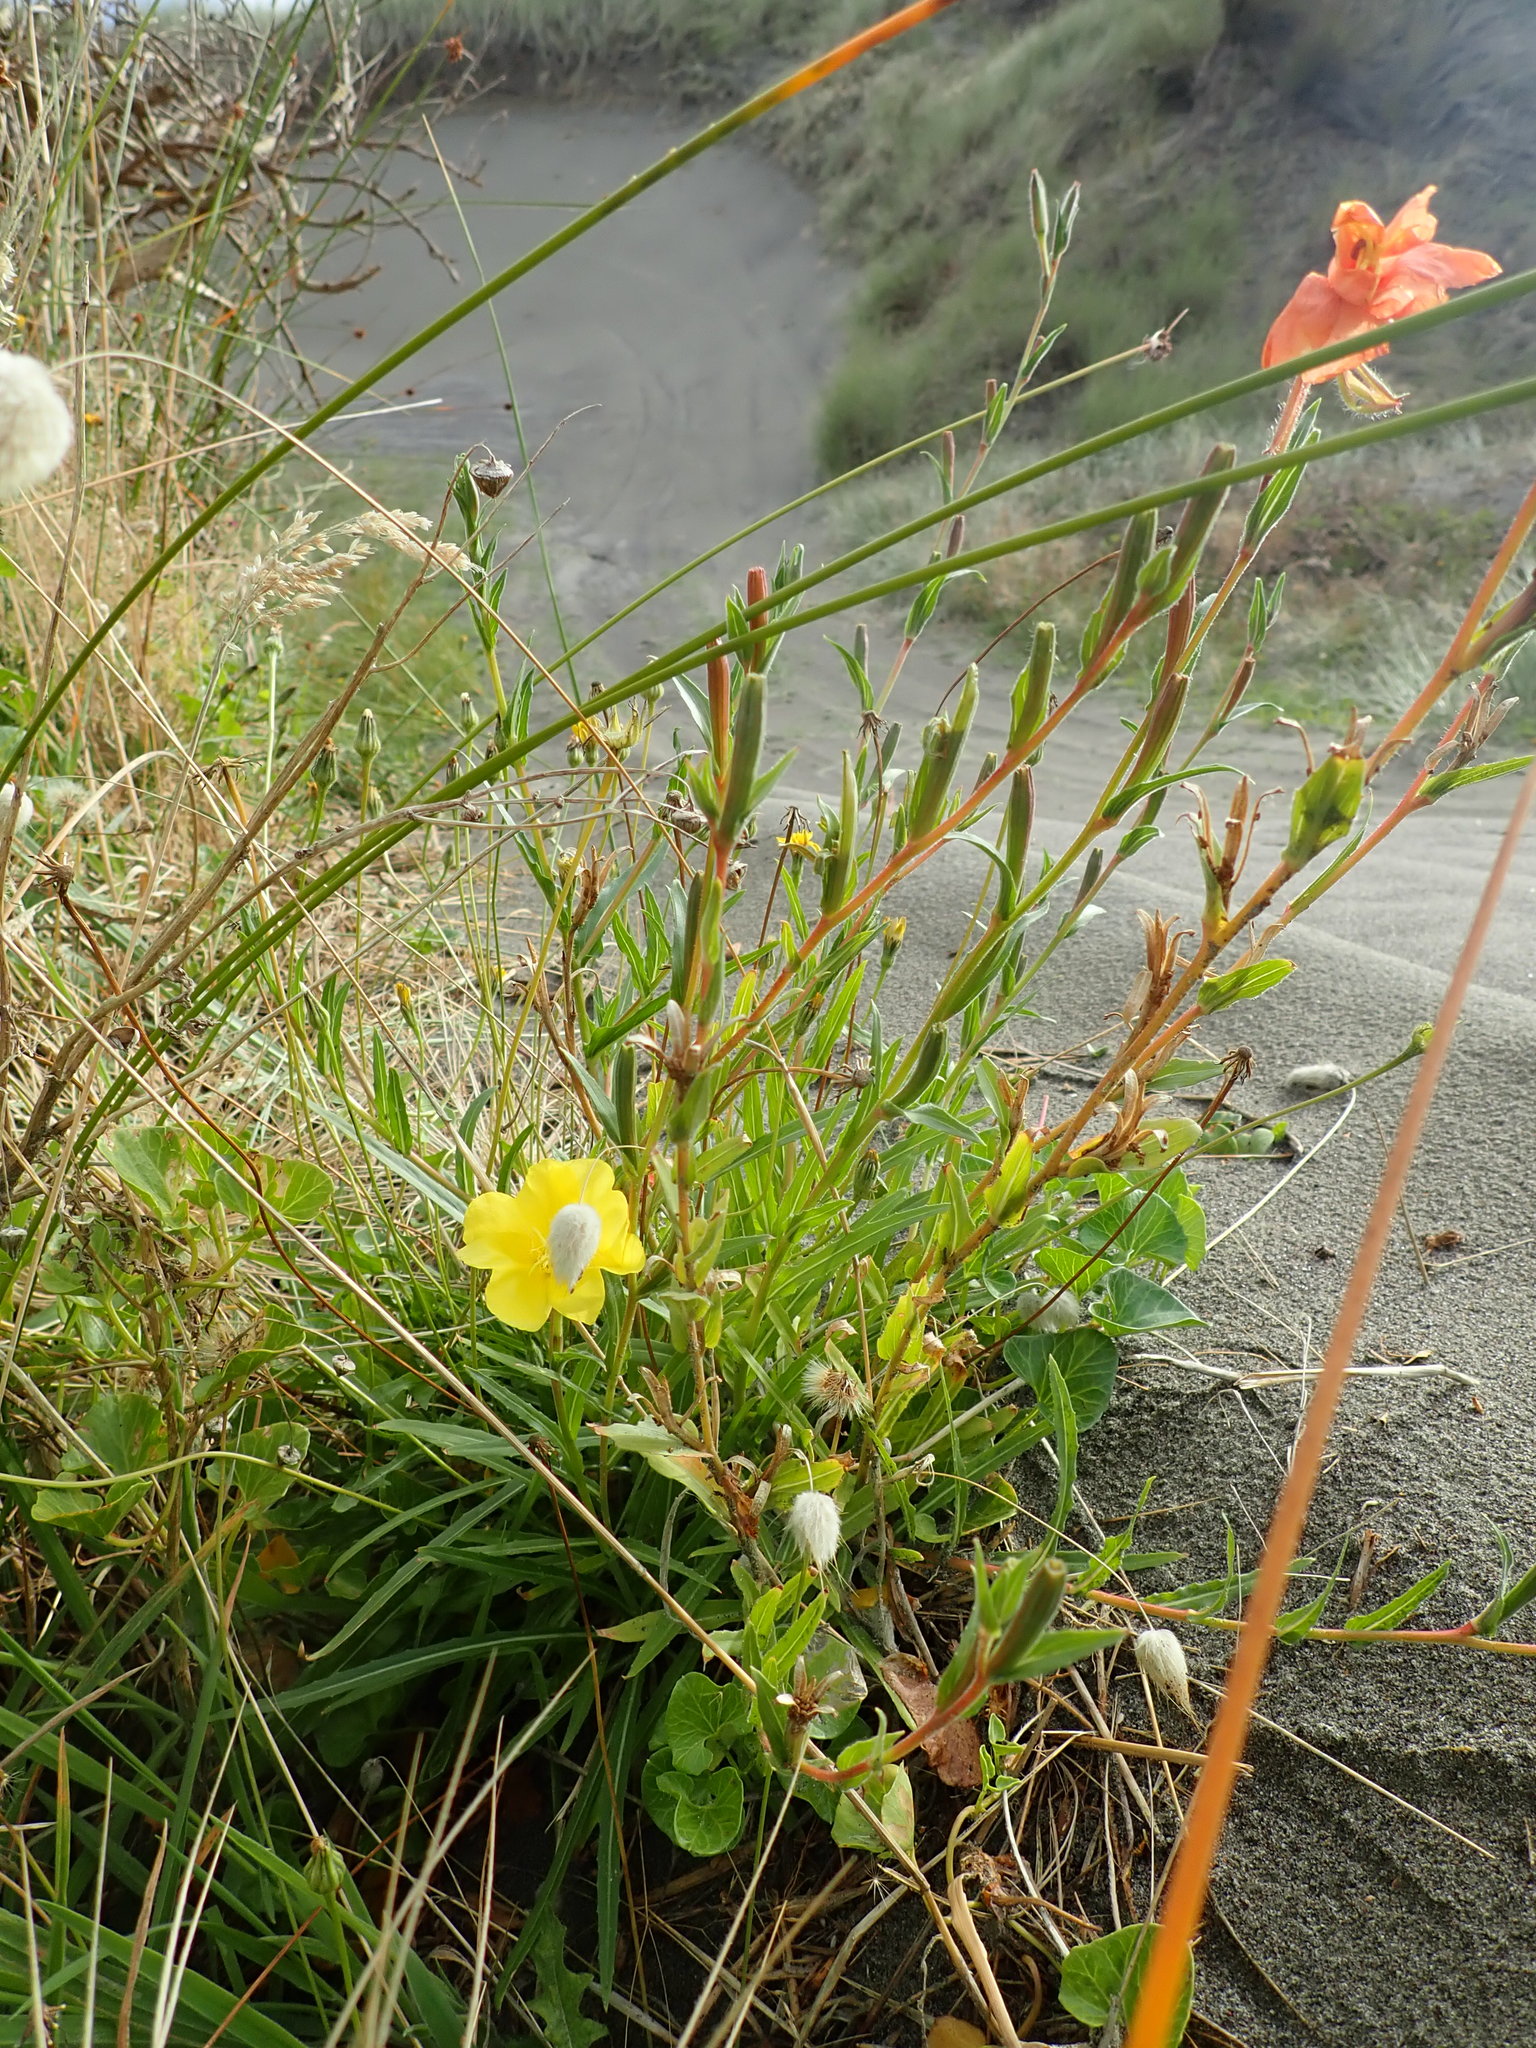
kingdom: Plantae
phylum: Tracheophyta
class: Magnoliopsida
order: Myrtales
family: Onagraceae
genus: Oenothera
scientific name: Oenothera stricta
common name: Fragrant evening-primrose
